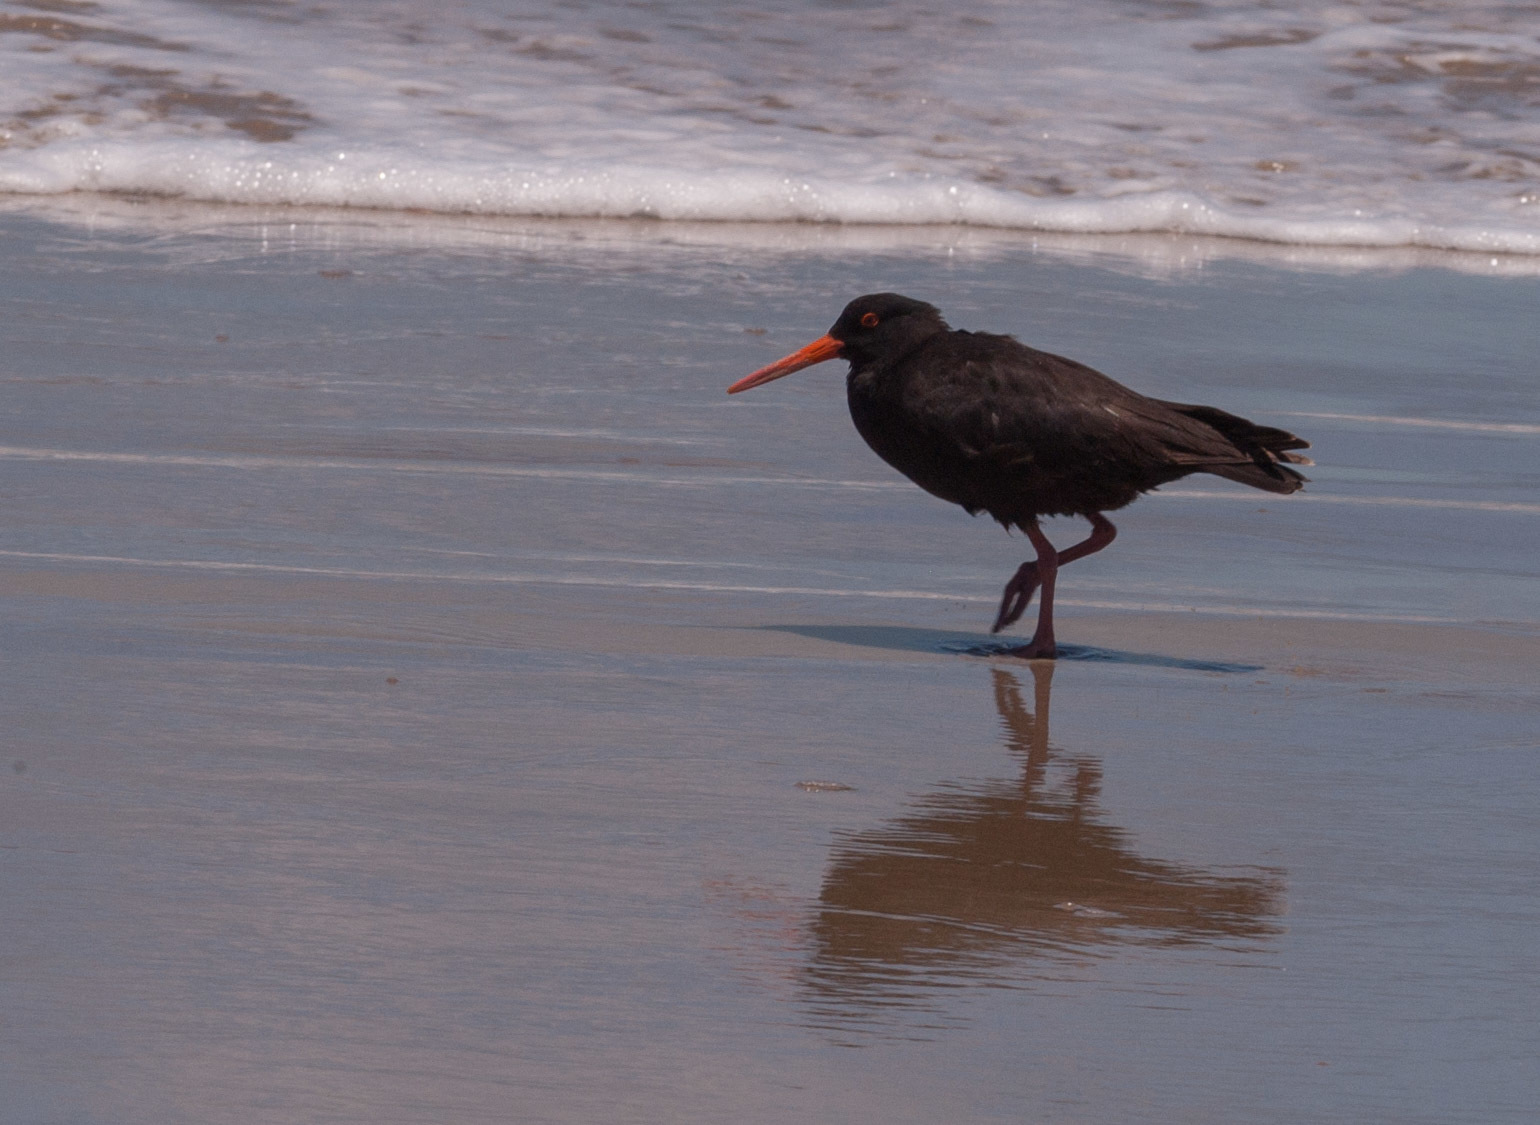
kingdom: Animalia
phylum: Chordata
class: Aves
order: Charadriiformes
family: Haematopodidae
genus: Haematopus
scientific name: Haematopus fuliginosus
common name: Sooty oystercatcher
